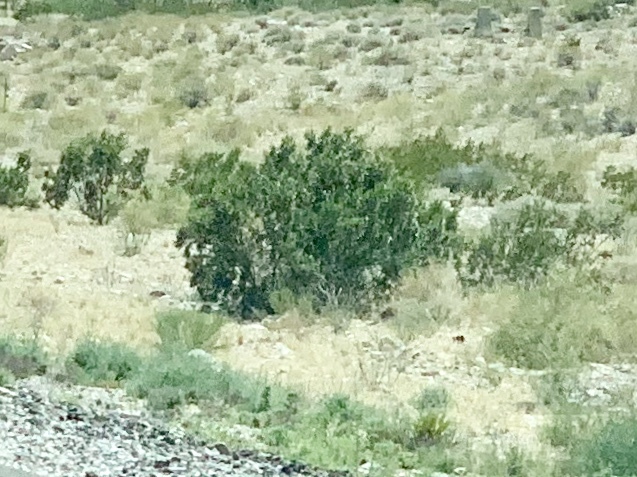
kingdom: Plantae
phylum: Tracheophyta
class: Magnoliopsida
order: Zygophyllales
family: Zygophyllaceae
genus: Larrea
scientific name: Larrea tridentata
